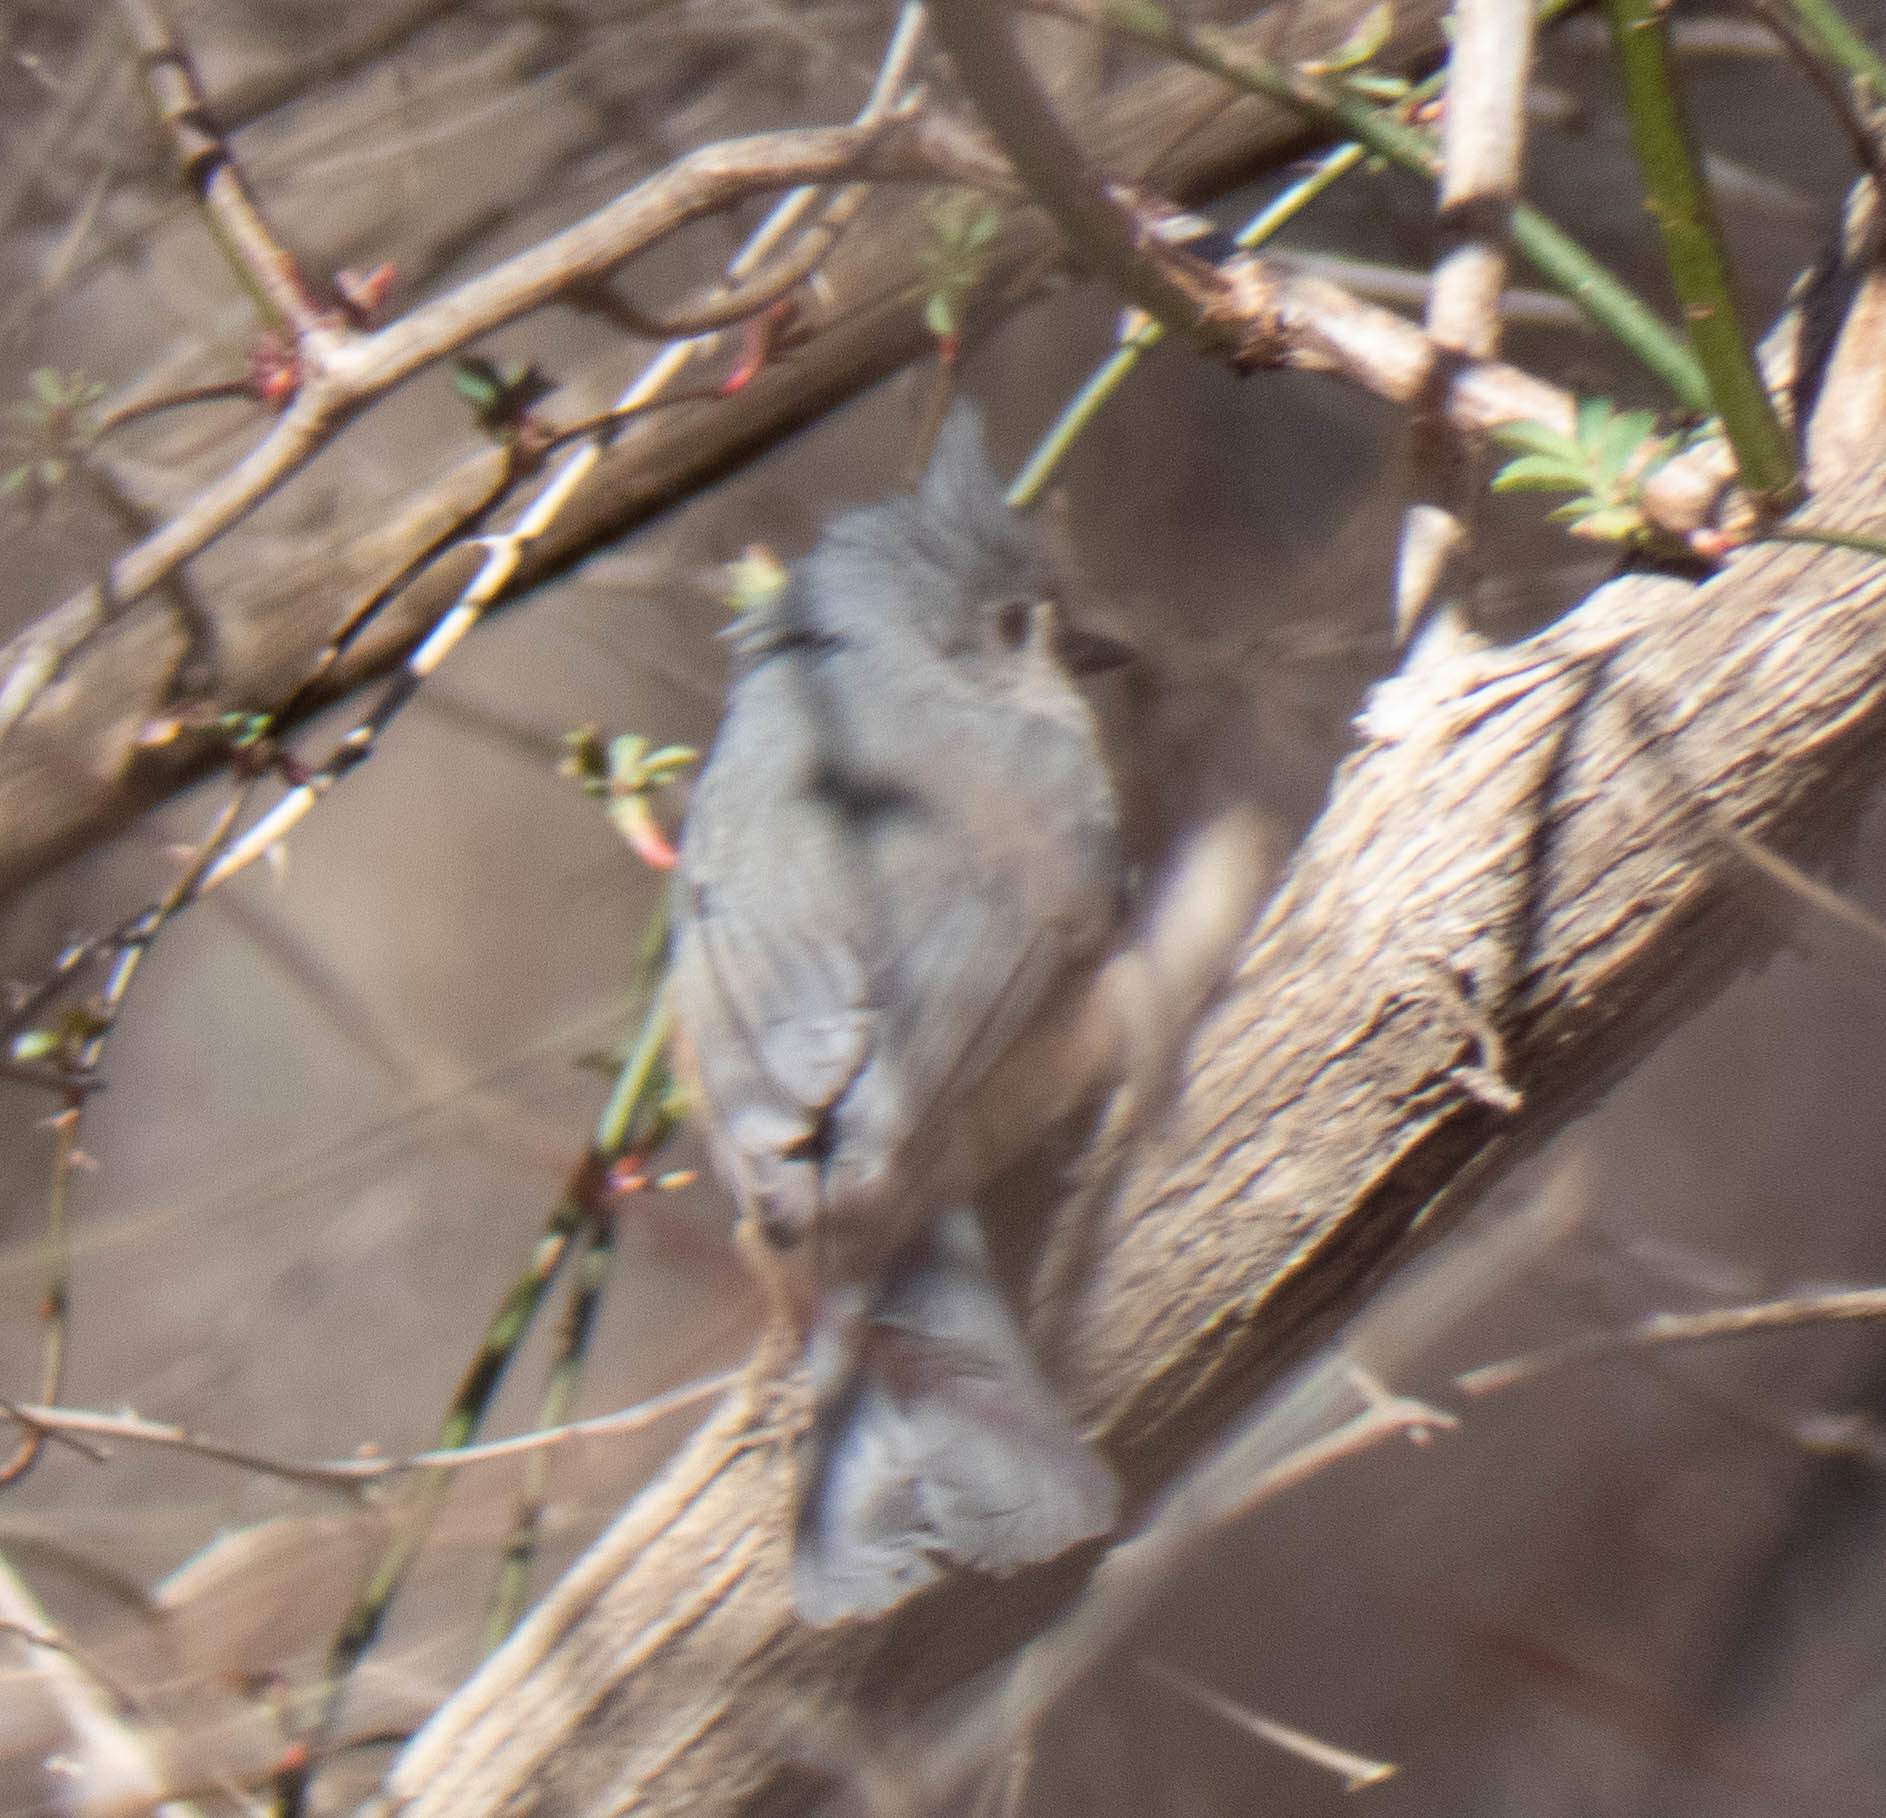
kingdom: Animalia
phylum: Chordata
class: Aves
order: Passeriformes
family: Paridae
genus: Baeolophus
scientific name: Baeolophus bicolor
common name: Tufted titmouse
